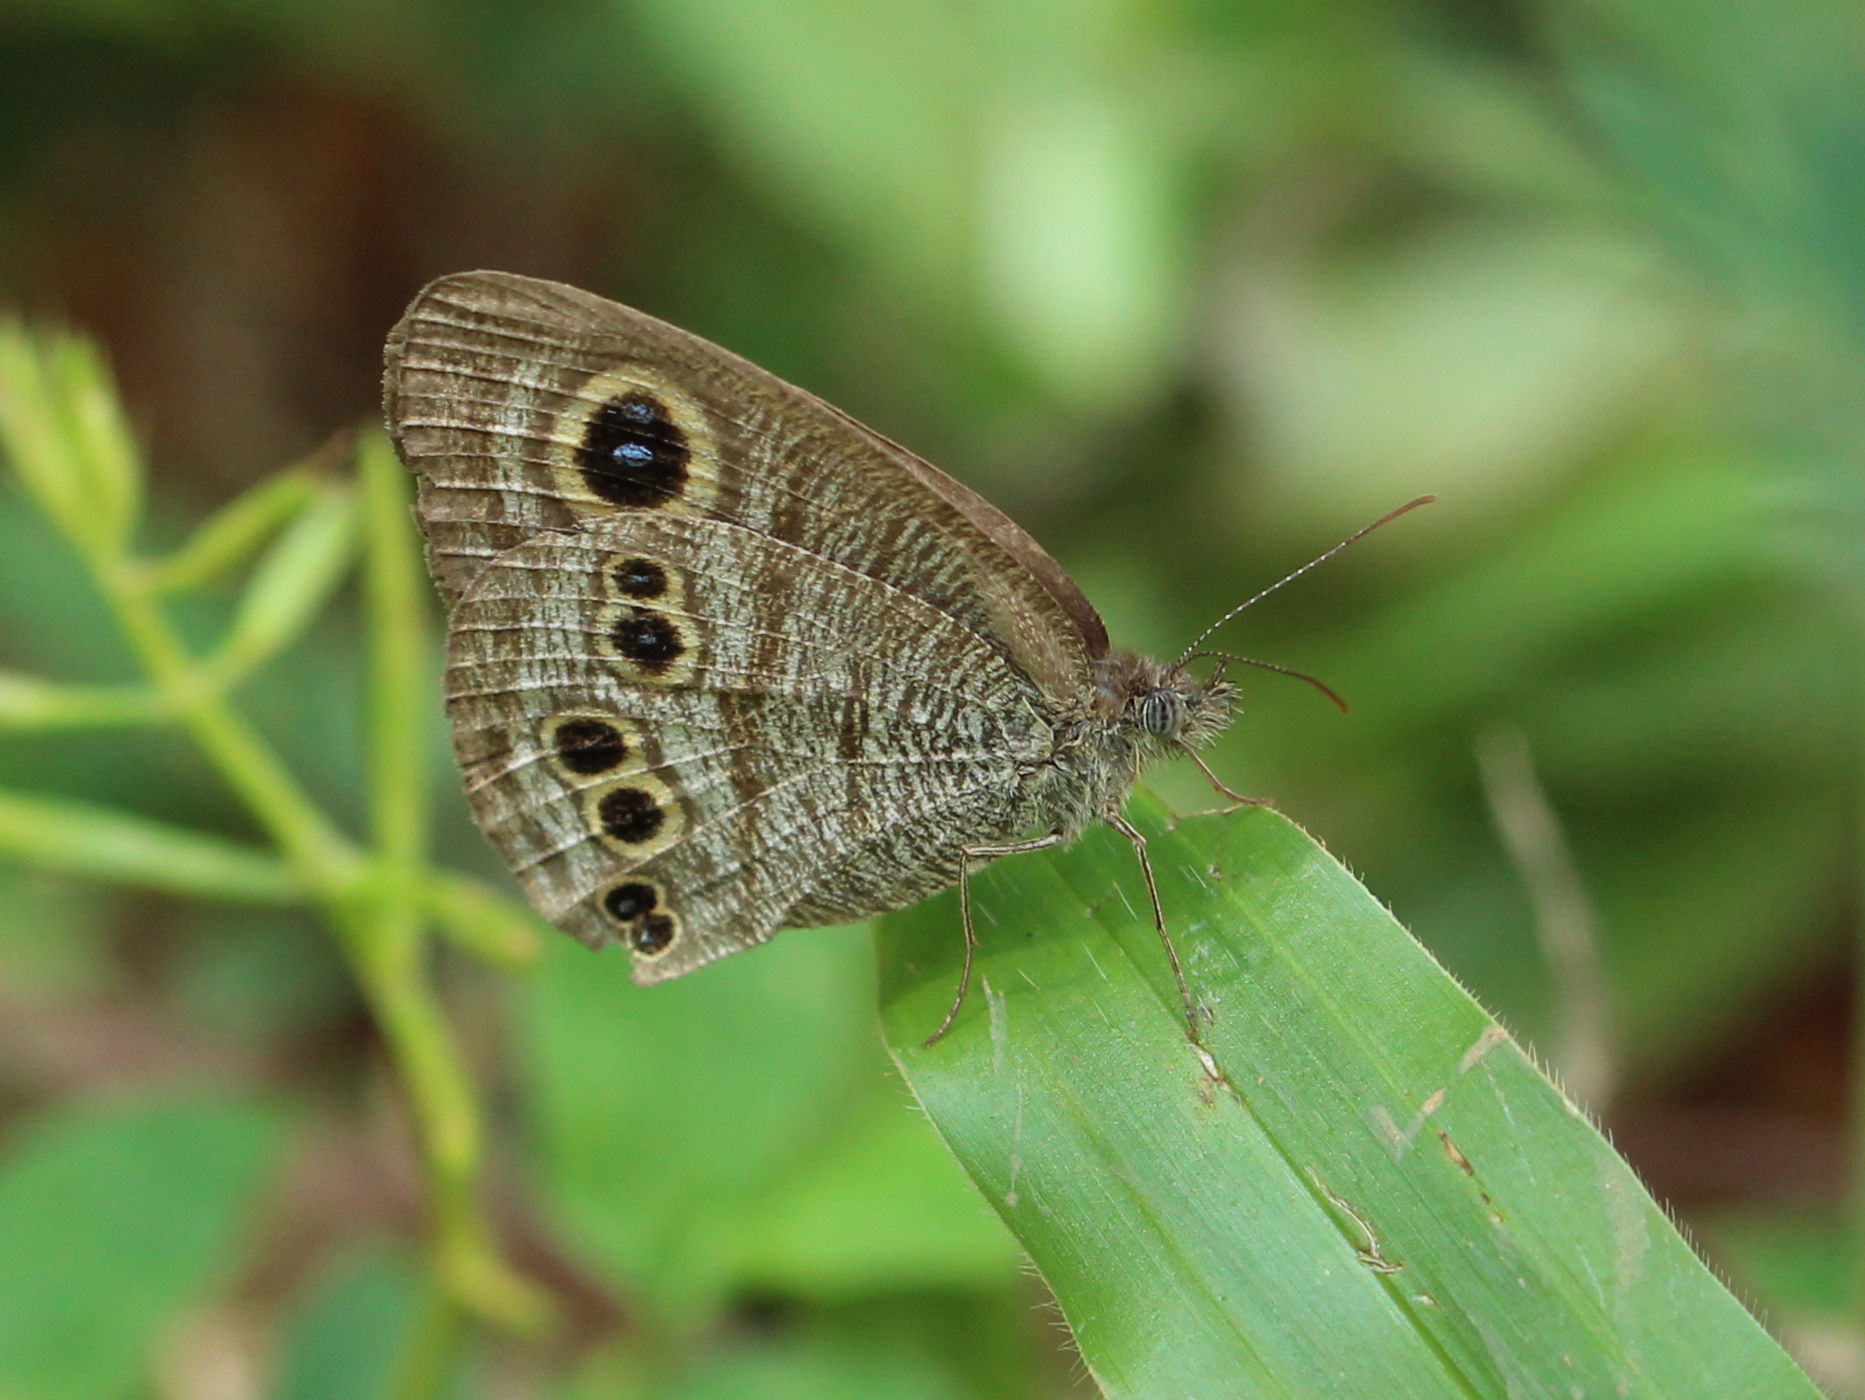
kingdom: Animalia
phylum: Arthropoda
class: Insecta
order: Lepidoptera
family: Nymphalidae
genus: Ypthima
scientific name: Ypthima baldus
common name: Common five-ring
